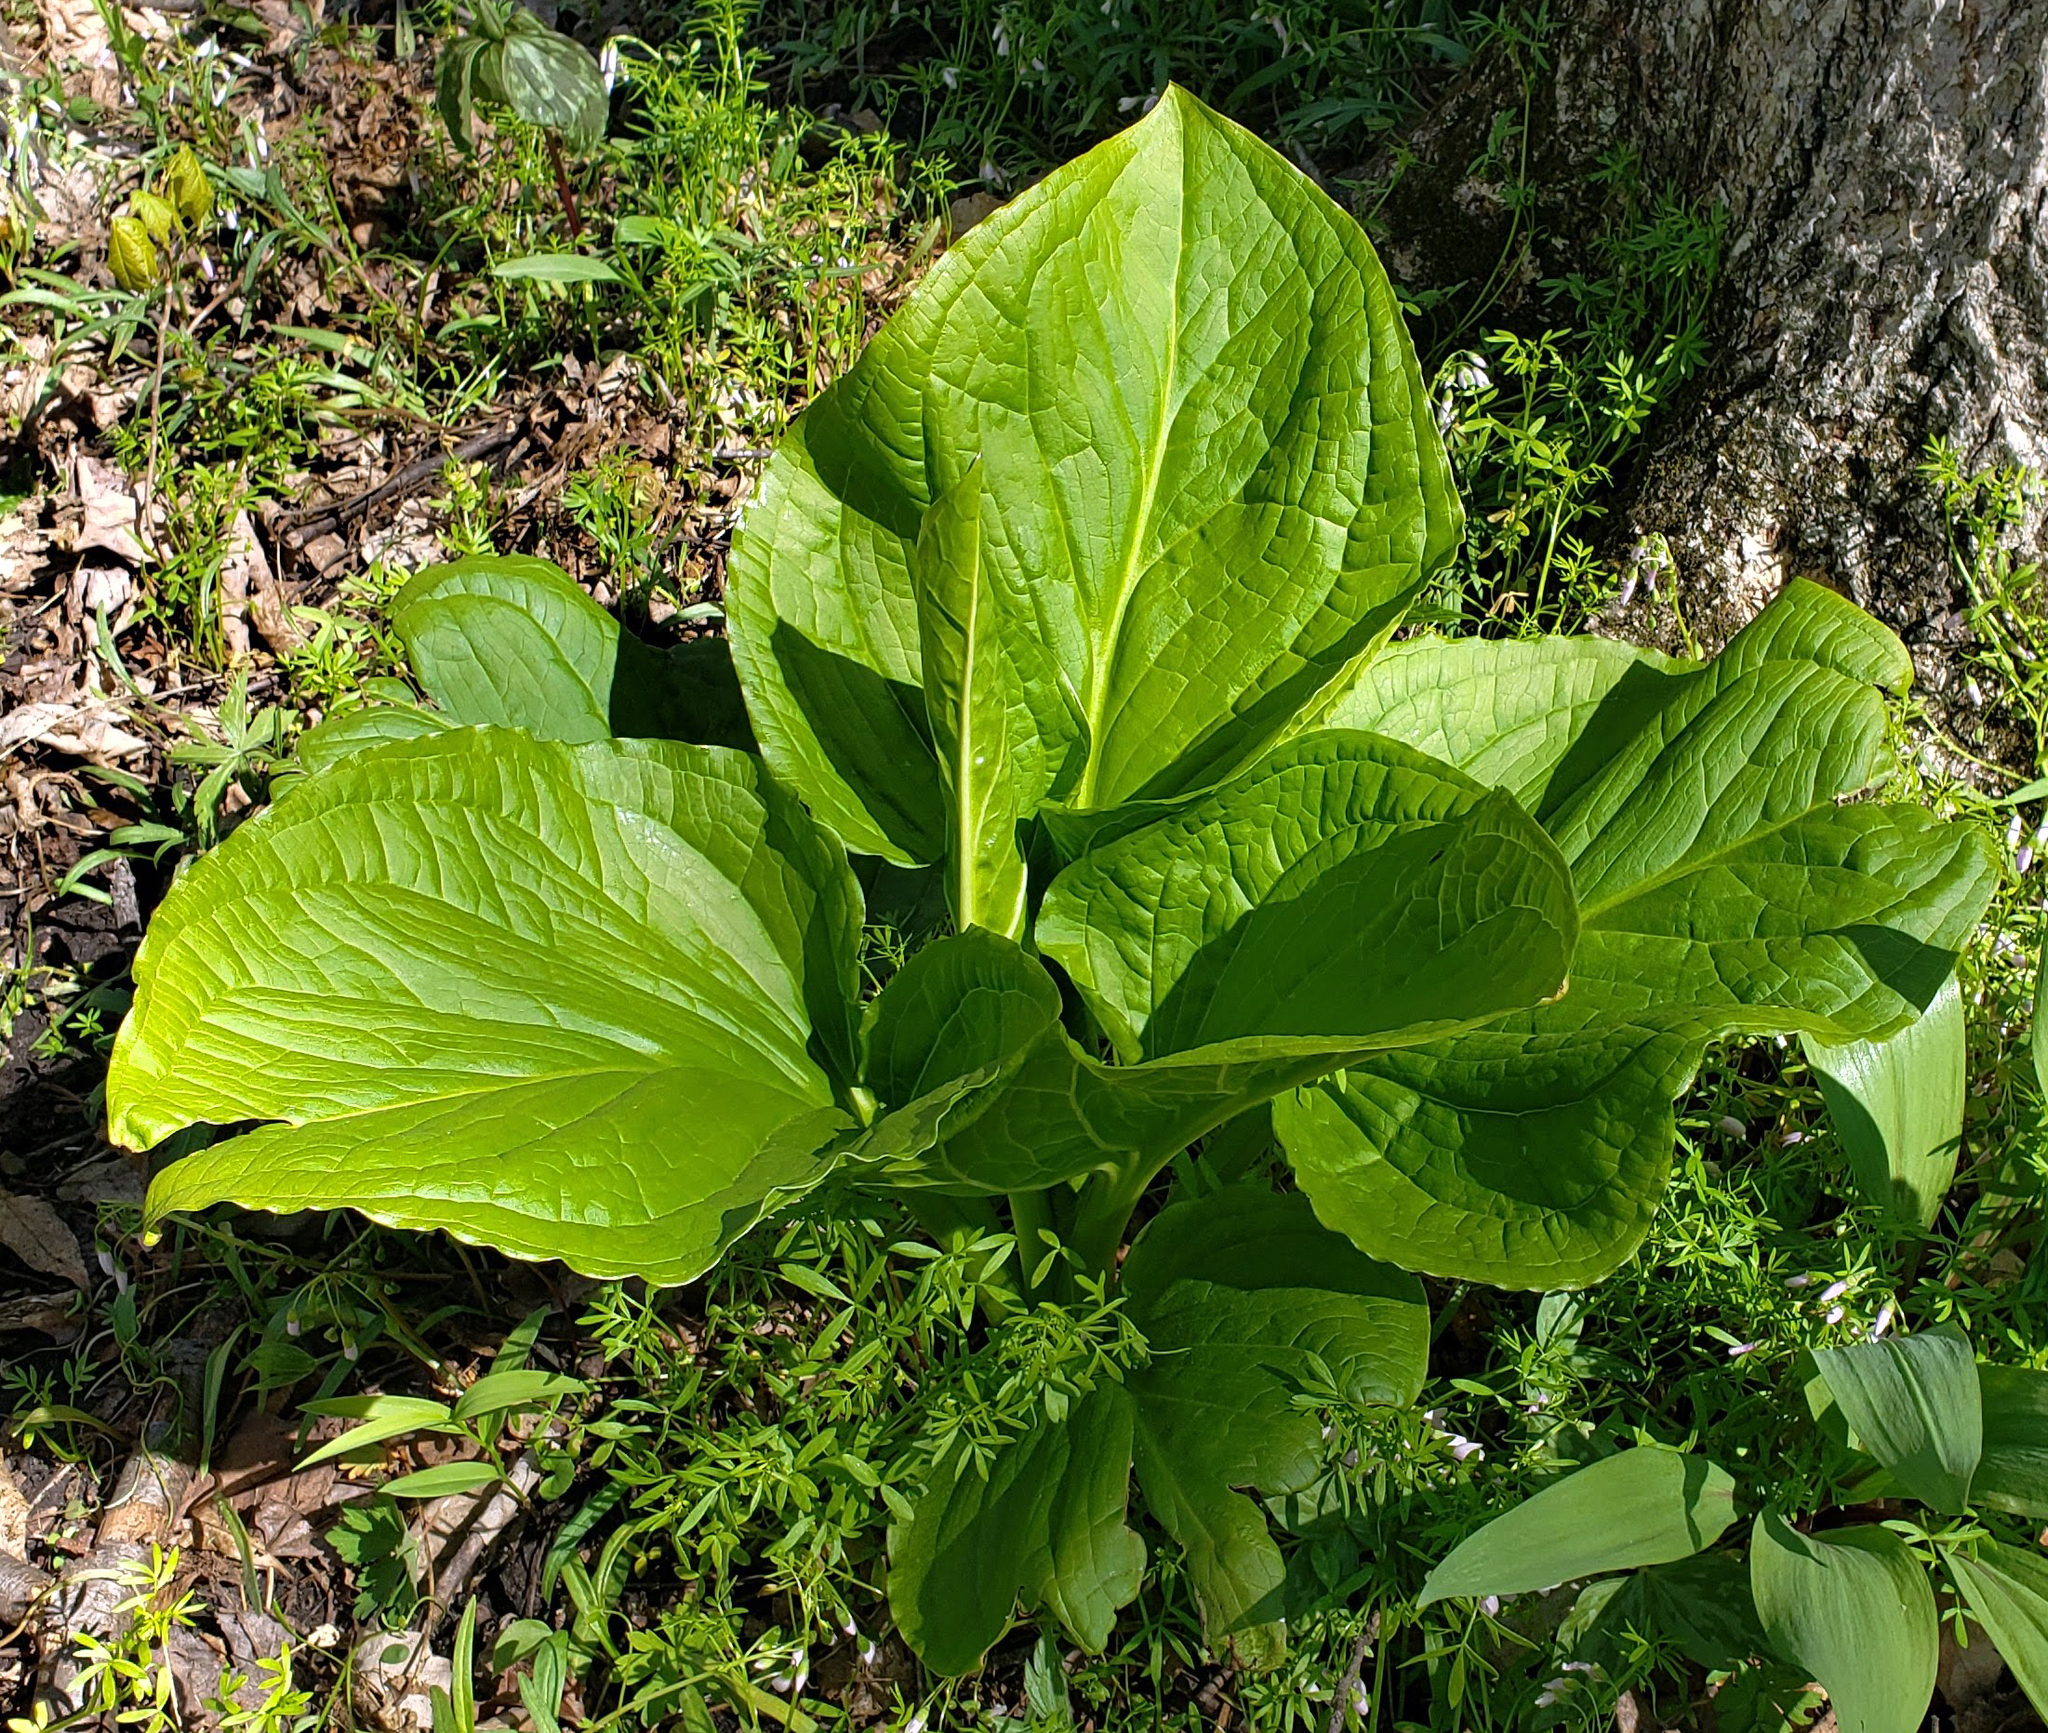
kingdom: Plantae
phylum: Tracheophyta
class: Liliopsida
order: Alismatales
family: Araceae
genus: Symplocarpus
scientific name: Symplocarpus foetidus
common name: Eastern skunk cabbage
